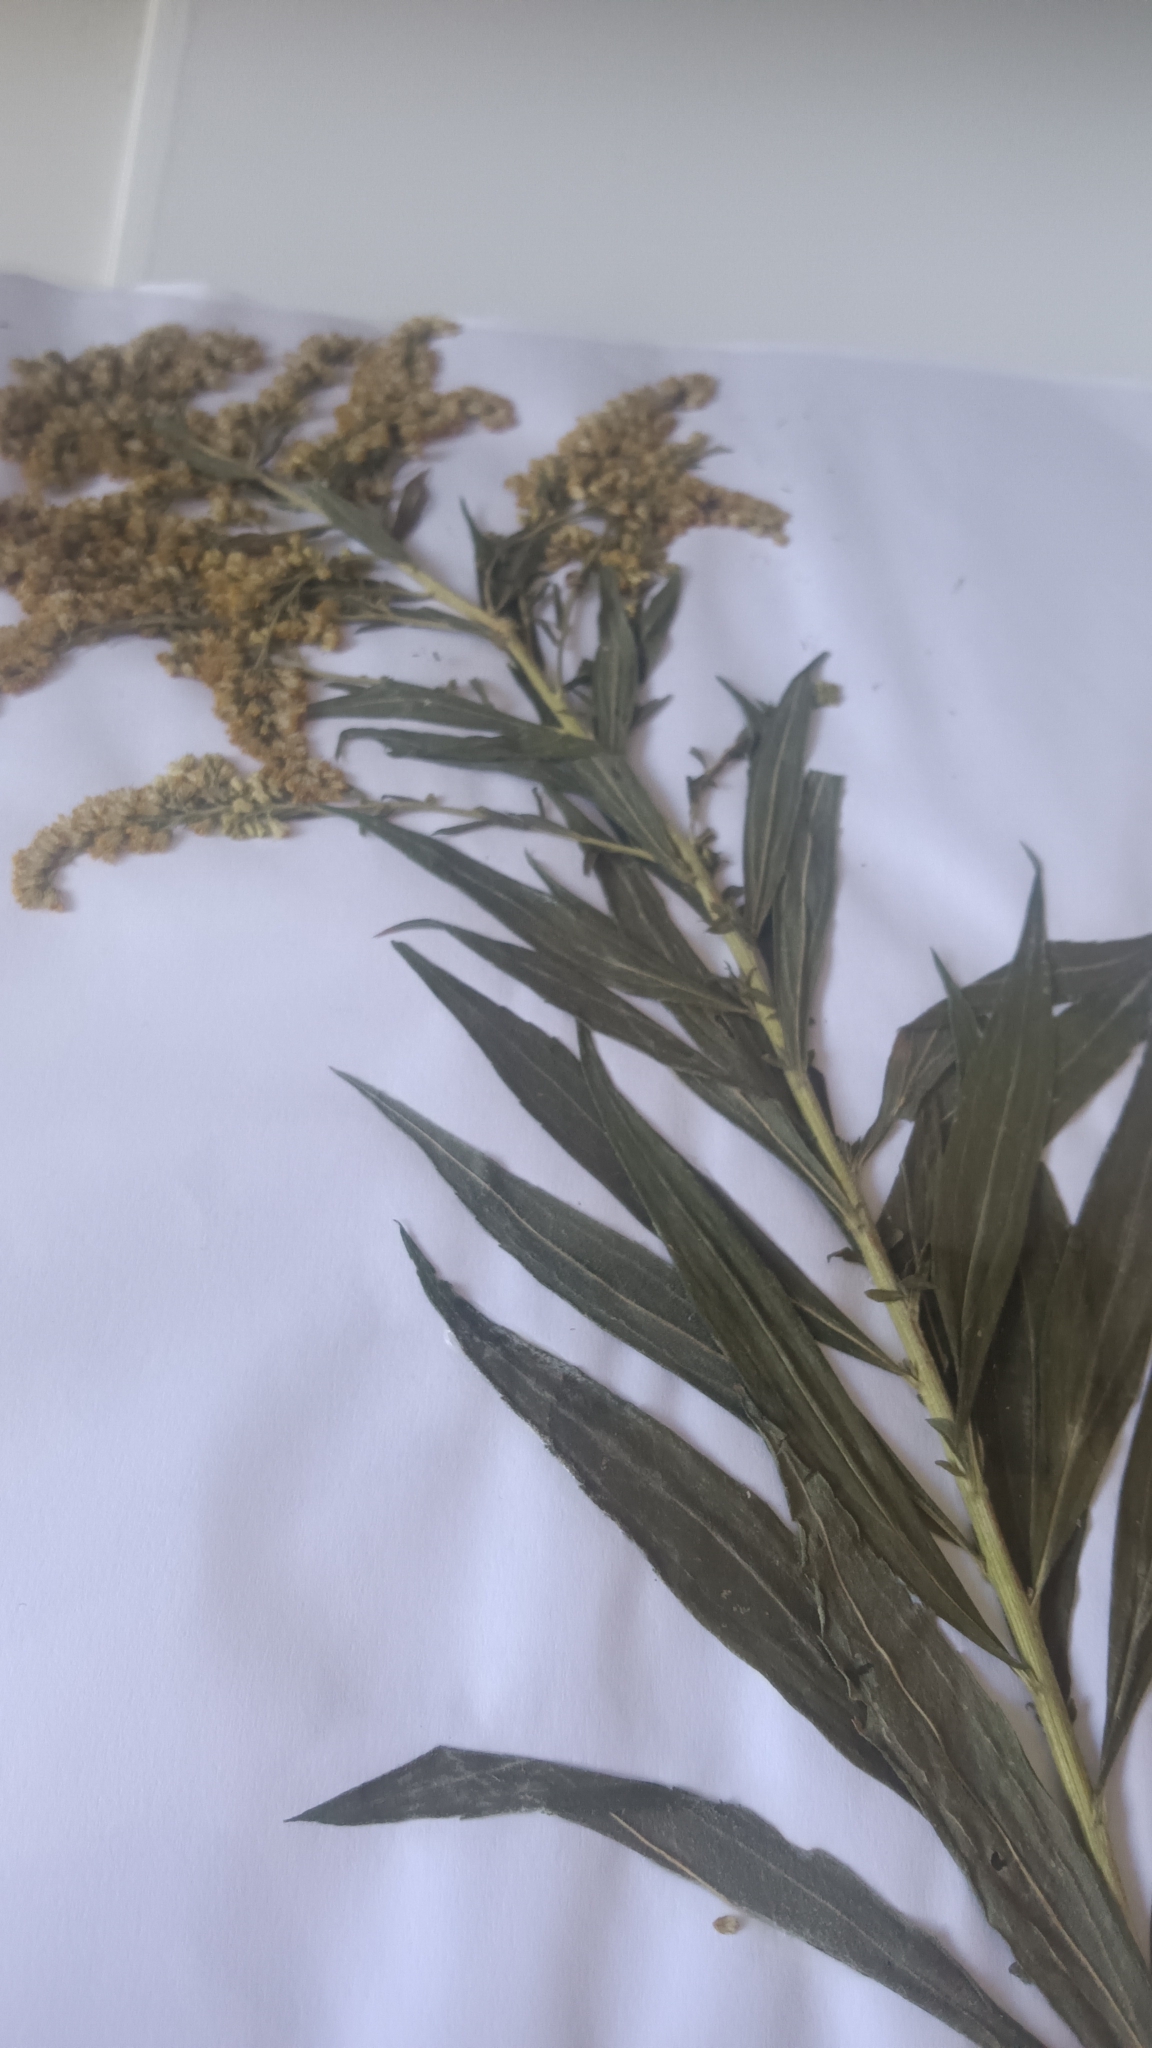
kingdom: Plantae
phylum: Tracheophyta
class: Magnoliopsida
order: Asterales
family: Asteraceae
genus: Solidago
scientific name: Solidago
